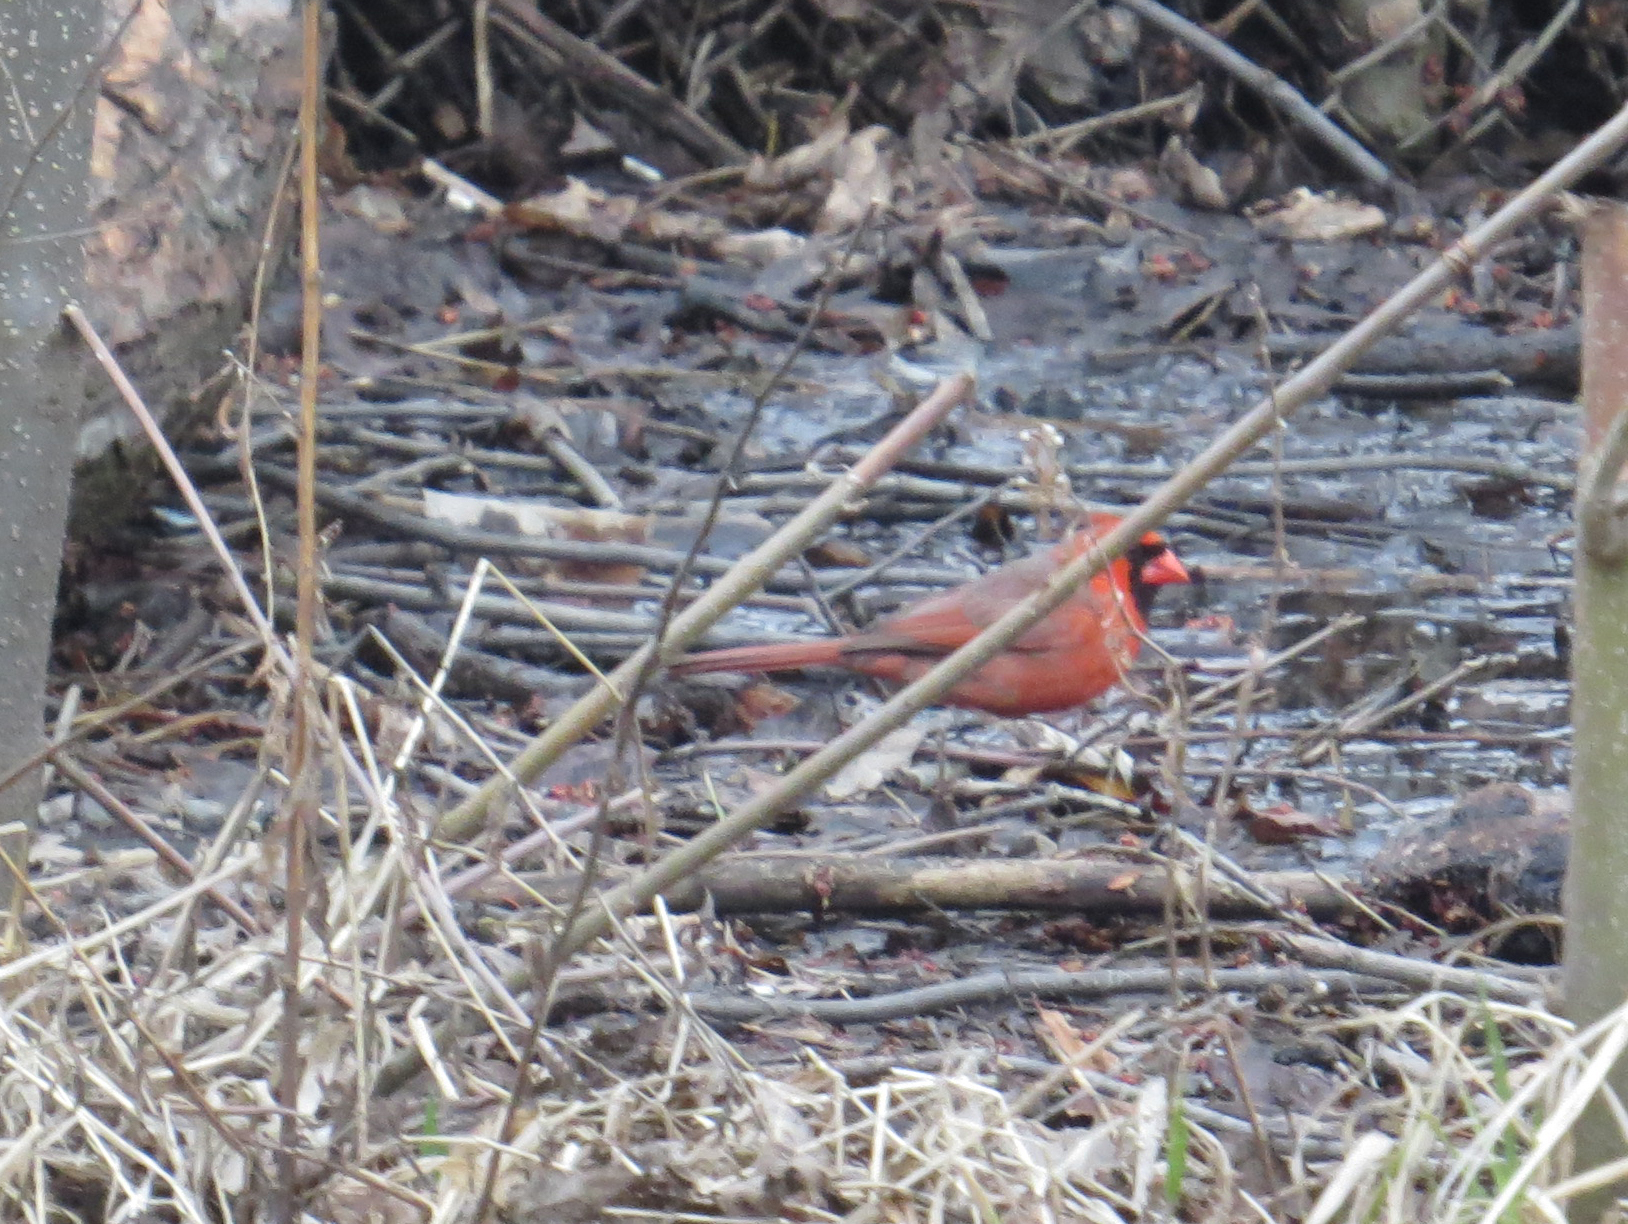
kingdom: Animalia
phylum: Chordata
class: Aves
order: Passeriformes
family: Cardinalidae
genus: Cardinalis
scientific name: Cardinalis cardinalis
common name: Northern cardinal
